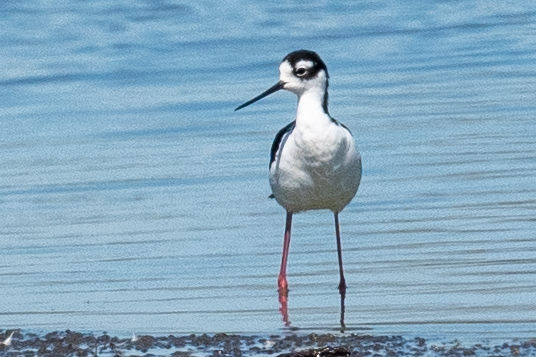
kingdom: Animalia
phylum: Chordata
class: Aves
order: Charadriiformes
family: Recurvirostridae
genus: Himantopus
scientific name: Himantopus mexicanus
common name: Black-necked stilt
